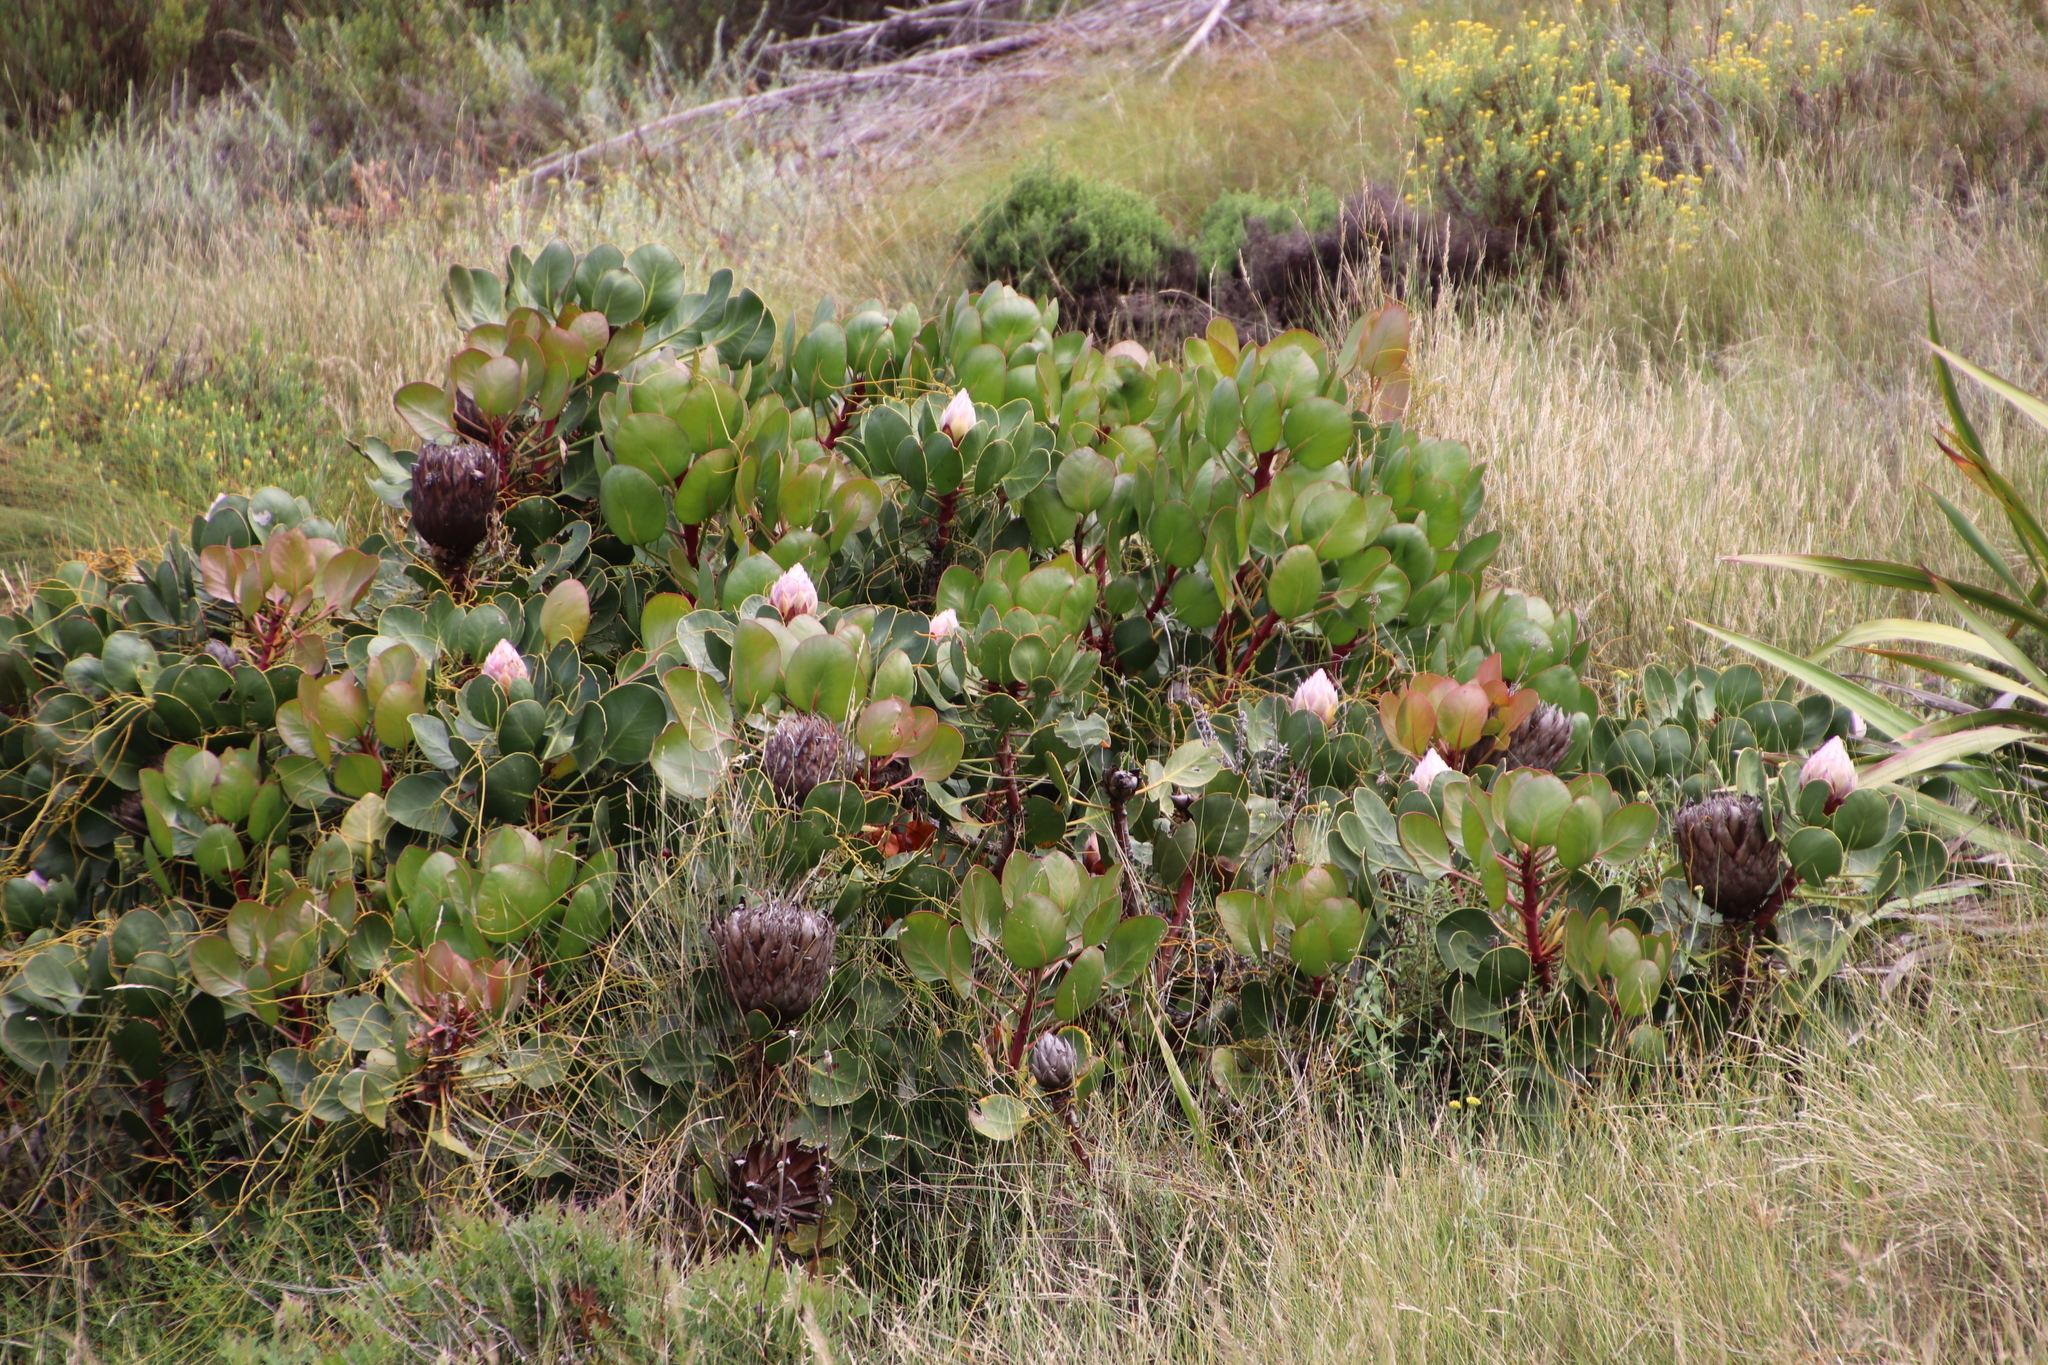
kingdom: Plantae
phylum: Tracheophyta
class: Magnoliopsida
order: Proteales
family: Proteaceae
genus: Protea
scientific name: Protea cynaroides
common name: King protea
